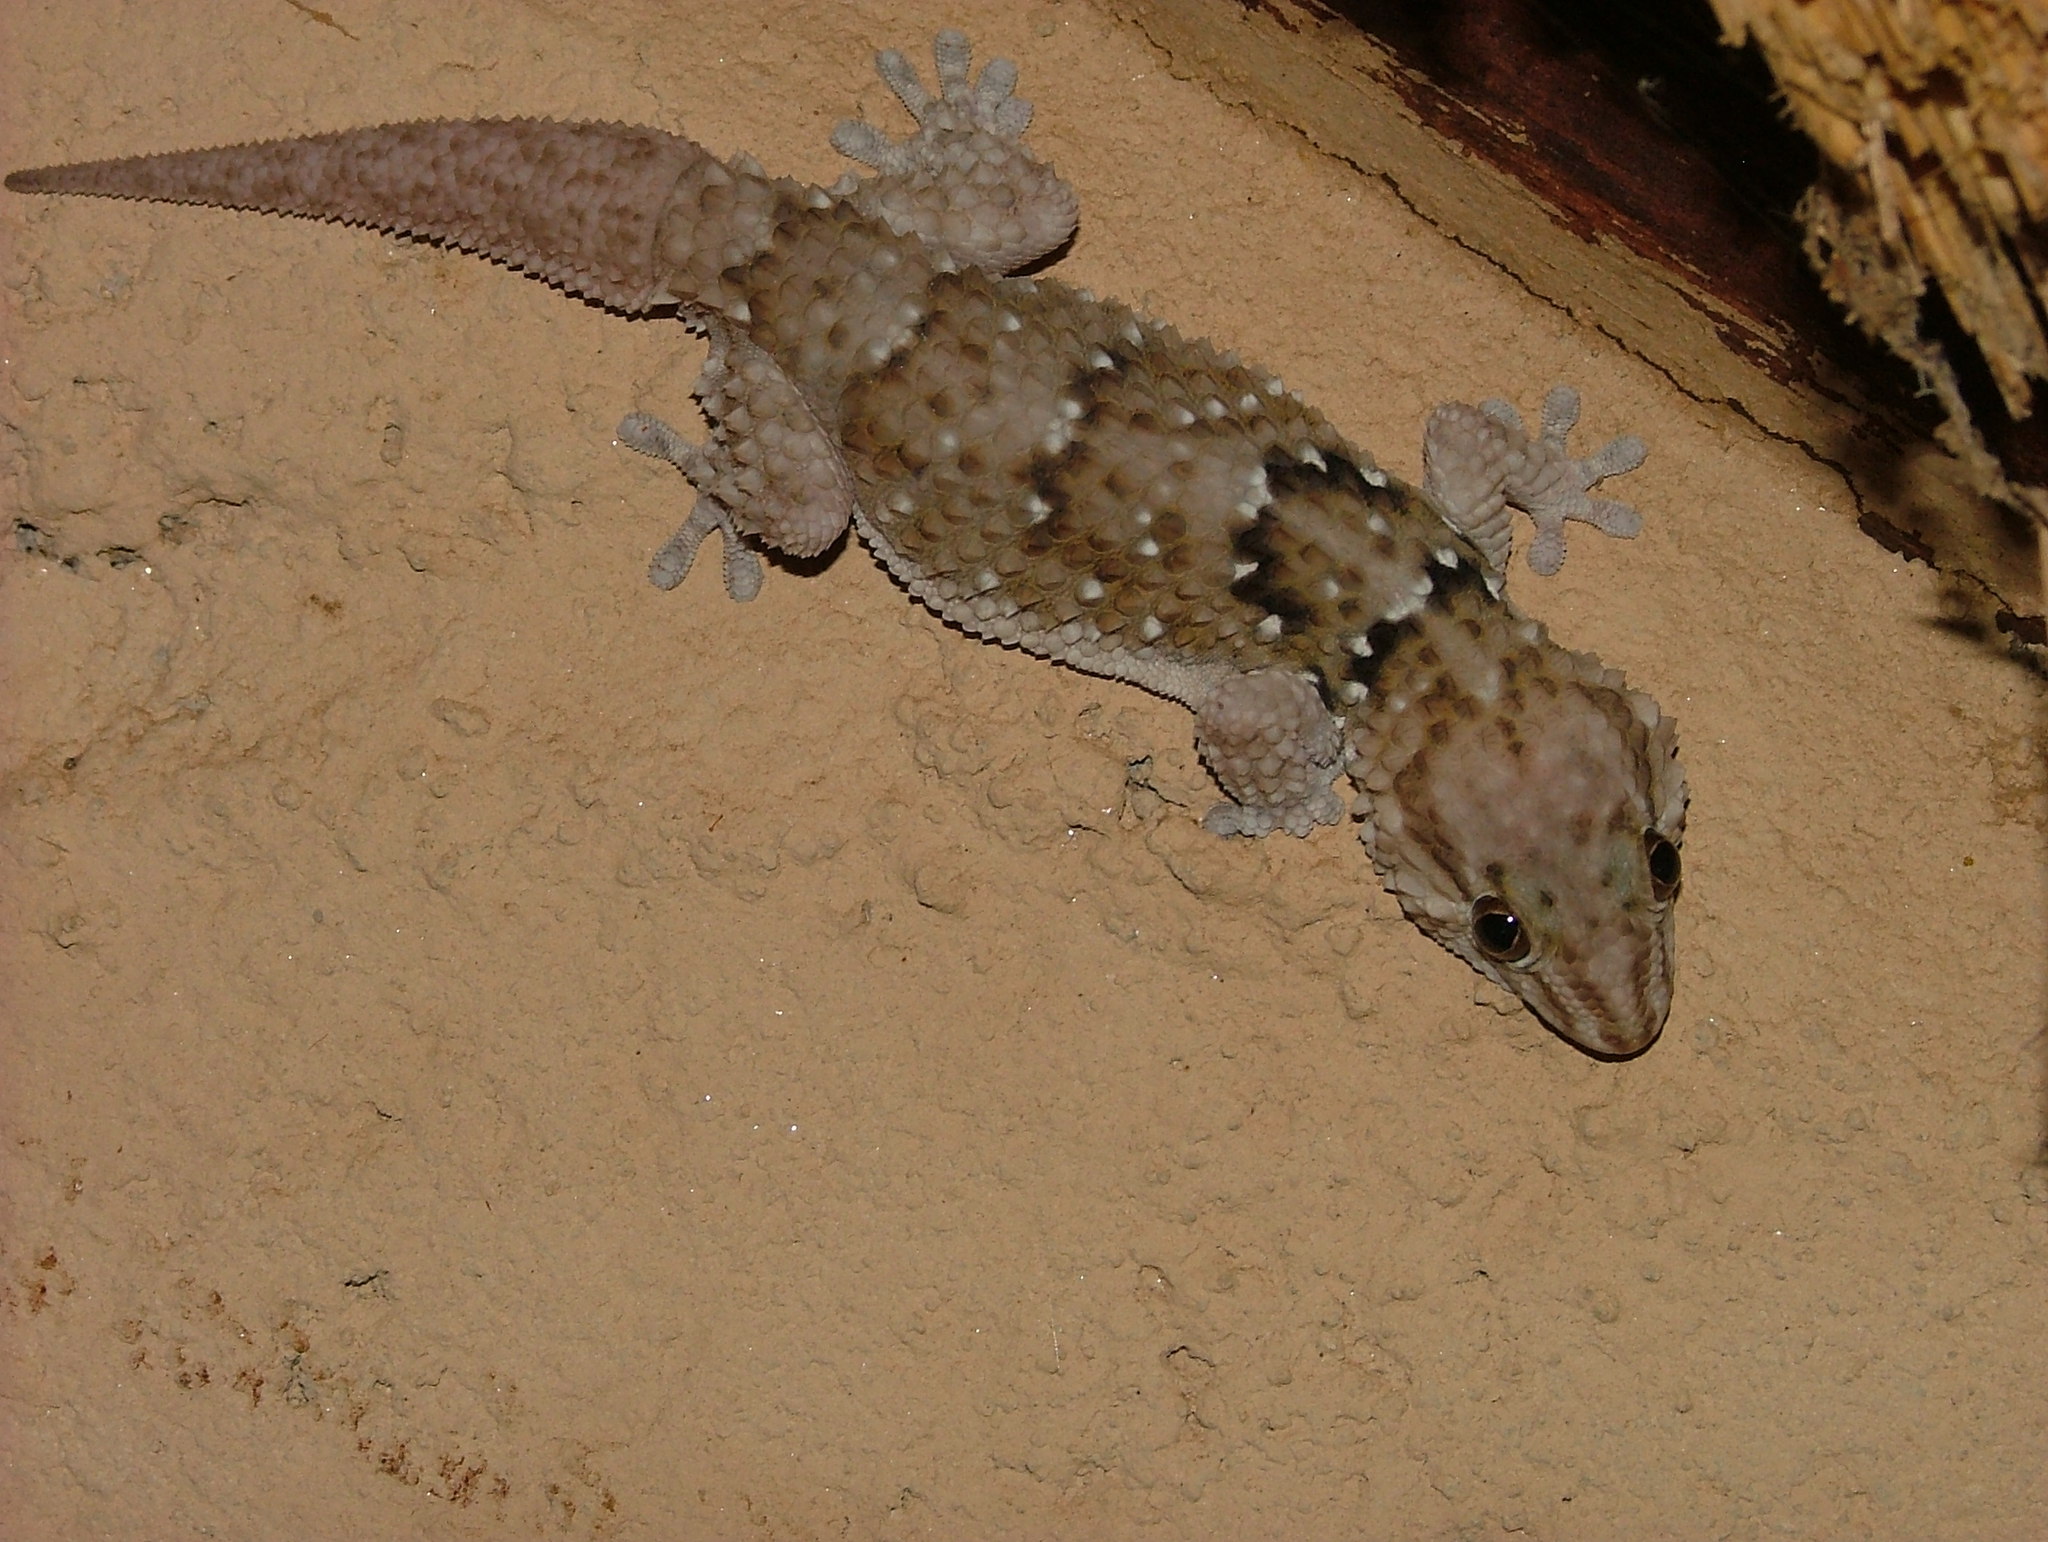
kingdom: Animalia
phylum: Chordata
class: Squamata
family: Gekkonidae
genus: Chondrodactylus
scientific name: Chondrodactylus bibronii
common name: Bibron's gecko
